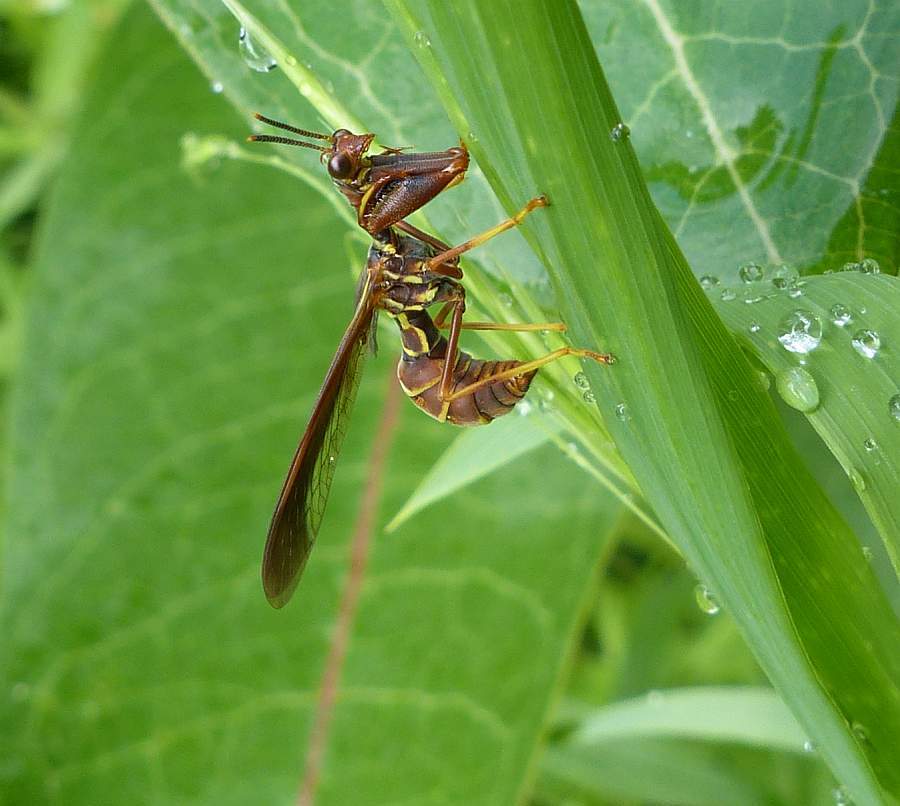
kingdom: Animalia
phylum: Arthropoda
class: Insecta
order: Neuroptera
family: Mantispidae
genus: Climaciella
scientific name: Climaciella brunnea
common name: Brown wasp mantidfly
